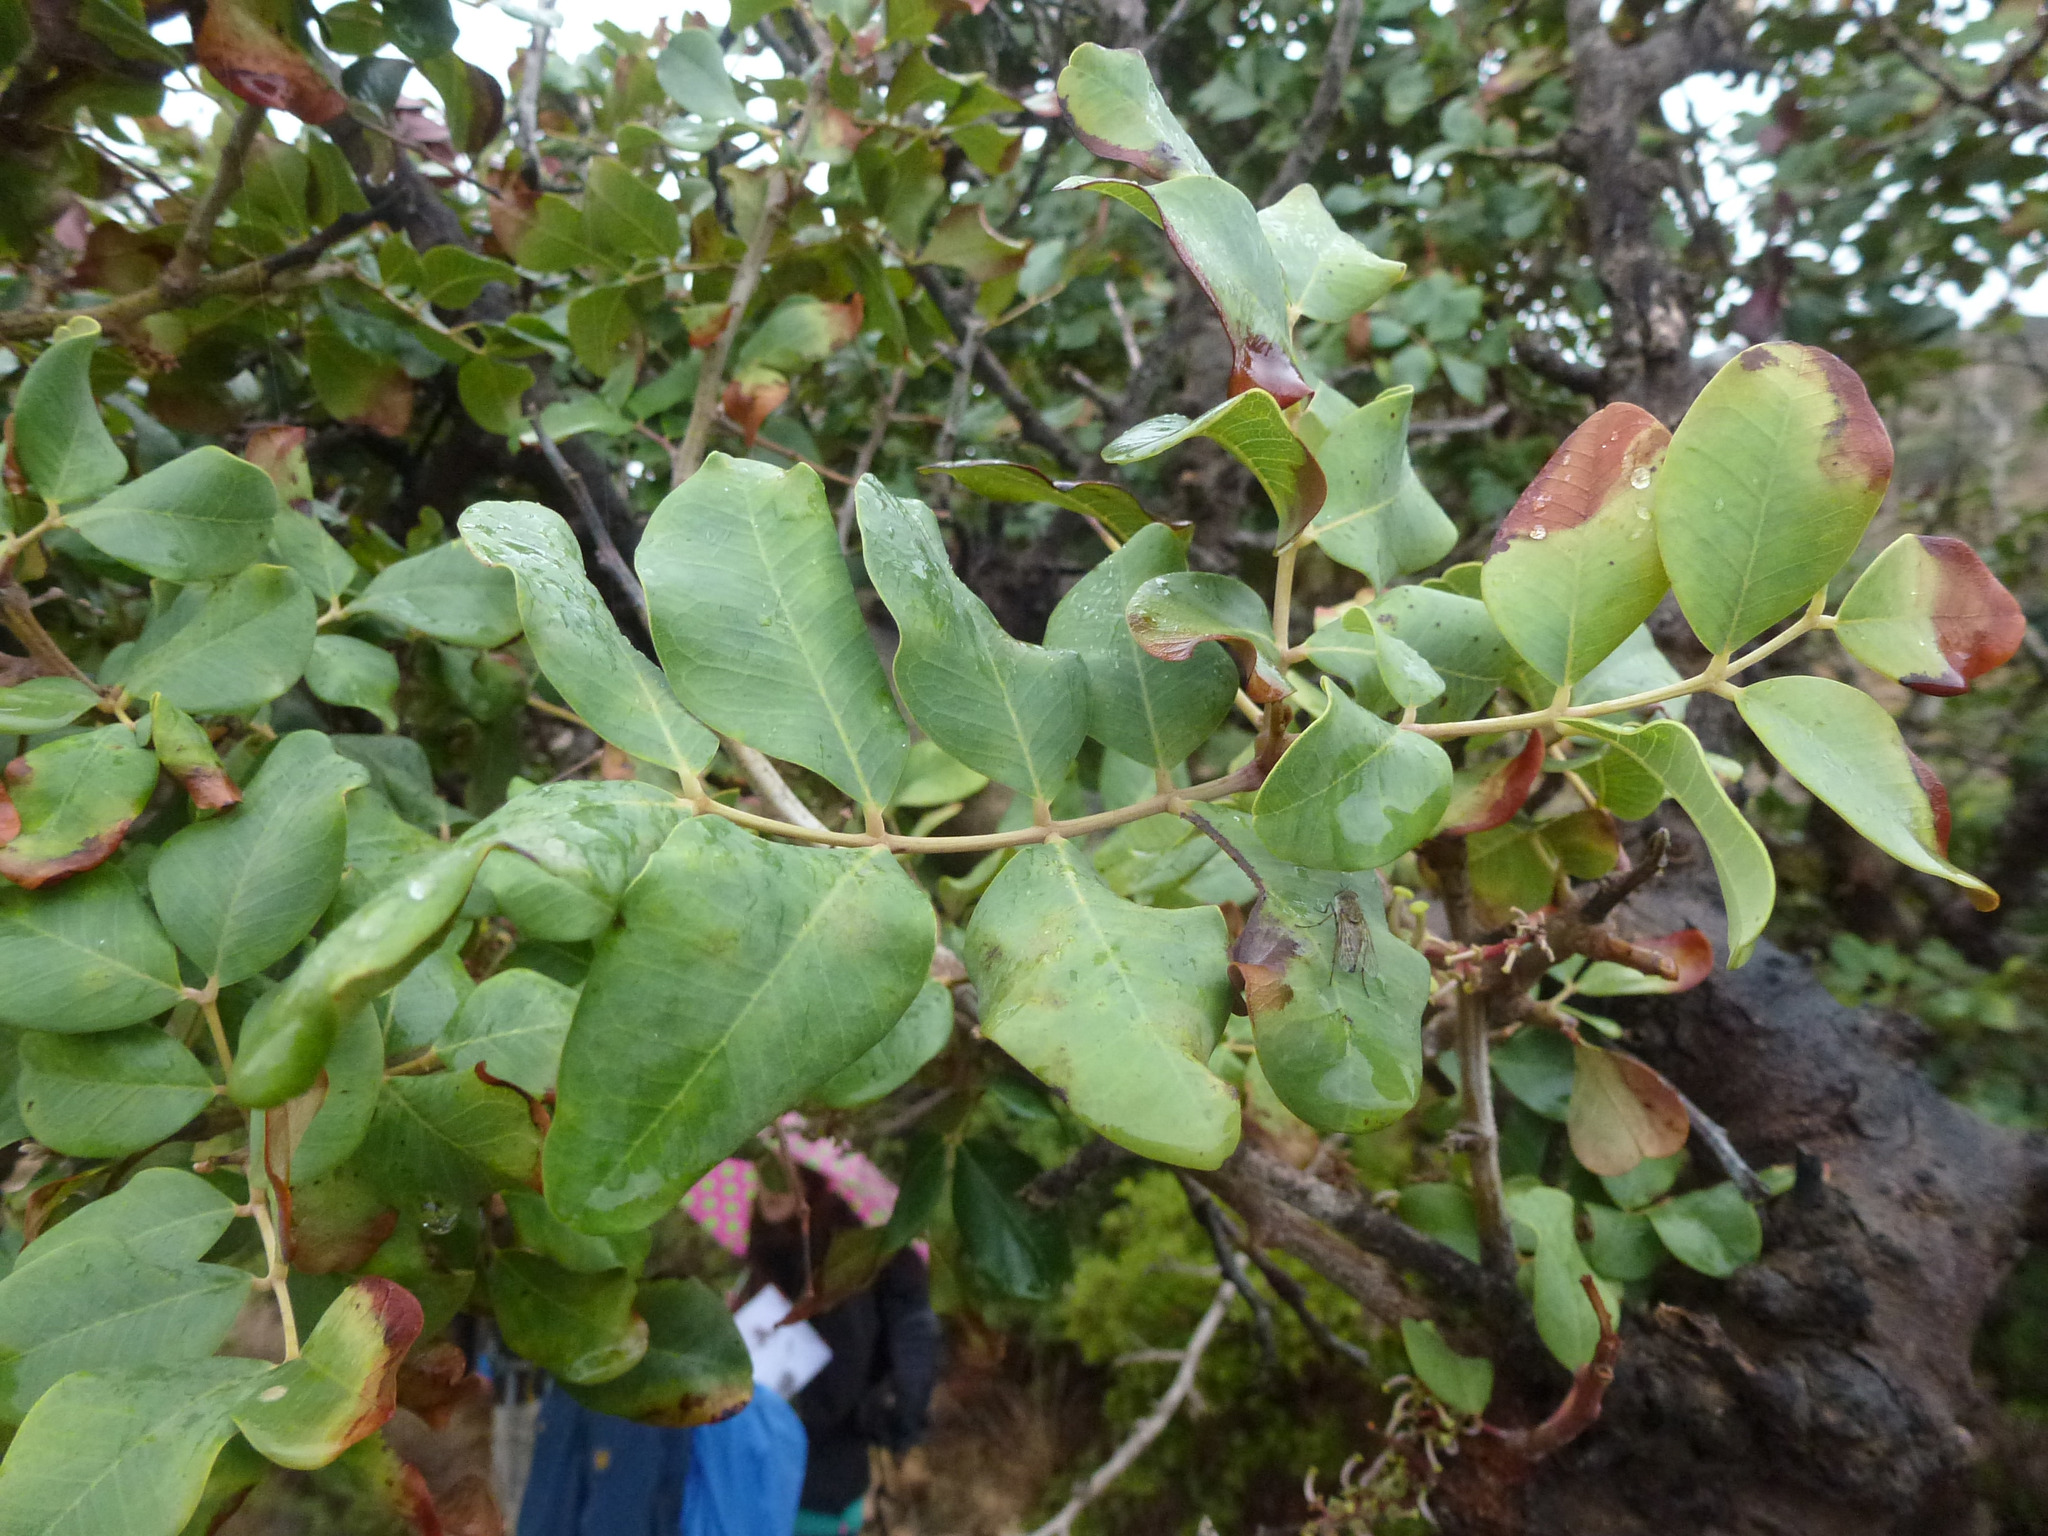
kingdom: Plantae
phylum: Tracheophyta
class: Magnoliopsida
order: Fabales
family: Fabaceae
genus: Ceratonia
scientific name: Ceratonia siliqua
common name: Carob
